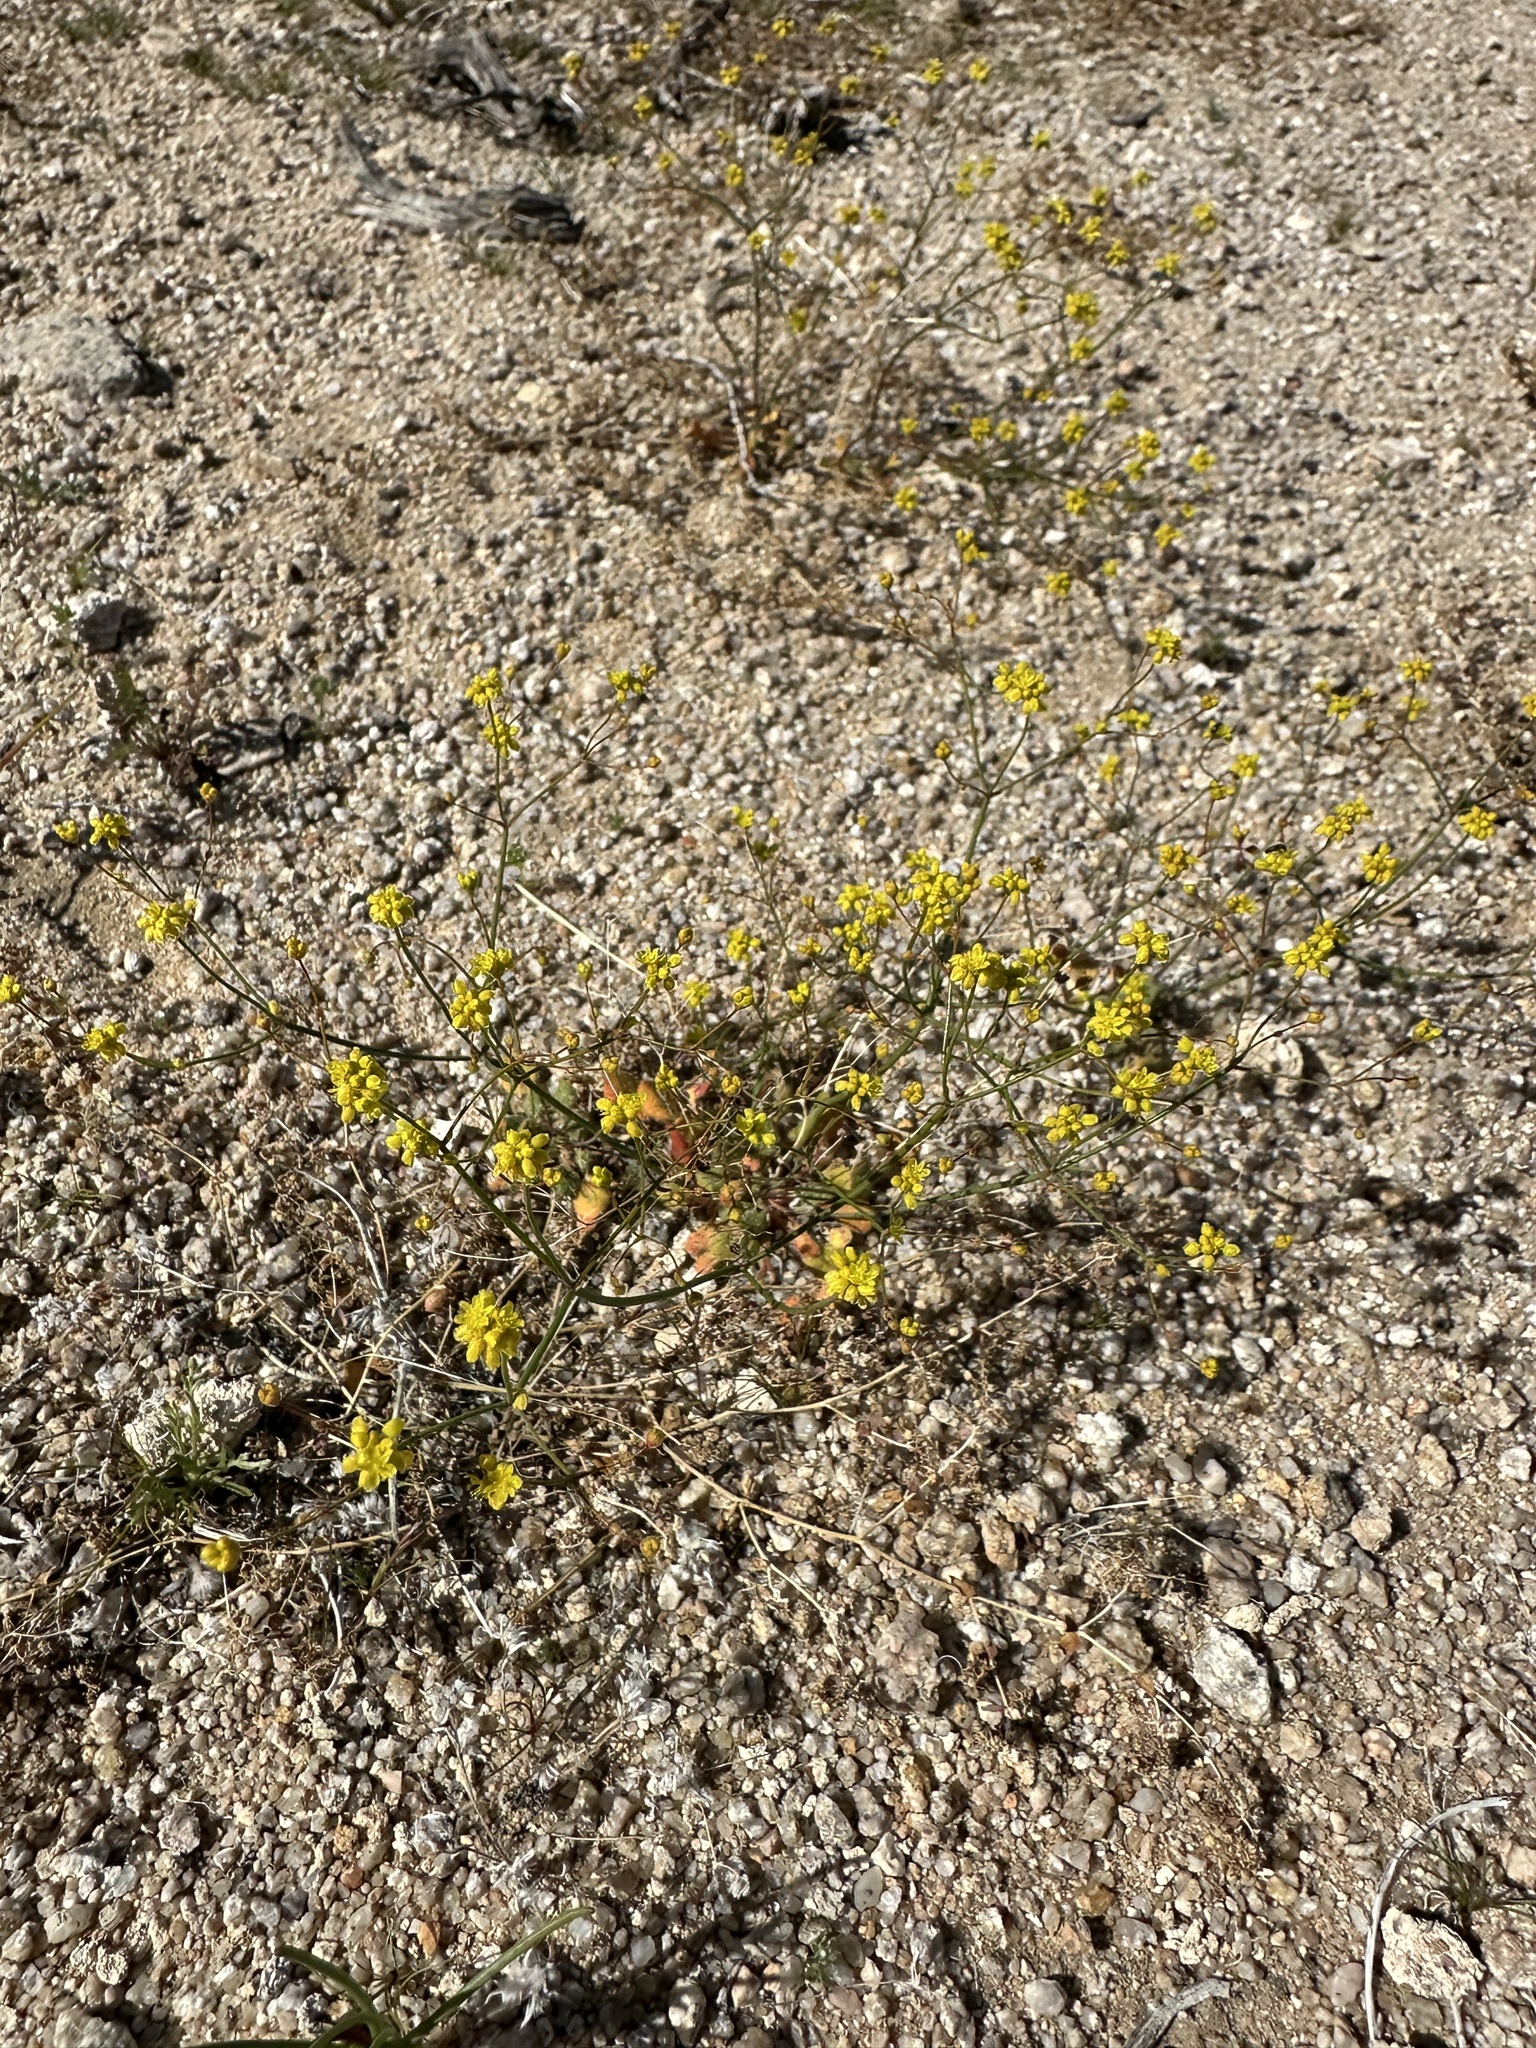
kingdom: Plantae
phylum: Tracheophyta
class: Magnoliopsida
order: Caryophyllales
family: Polygonaceae
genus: Eriogonum
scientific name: Eriogonum pusillum
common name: Yellow turbans
